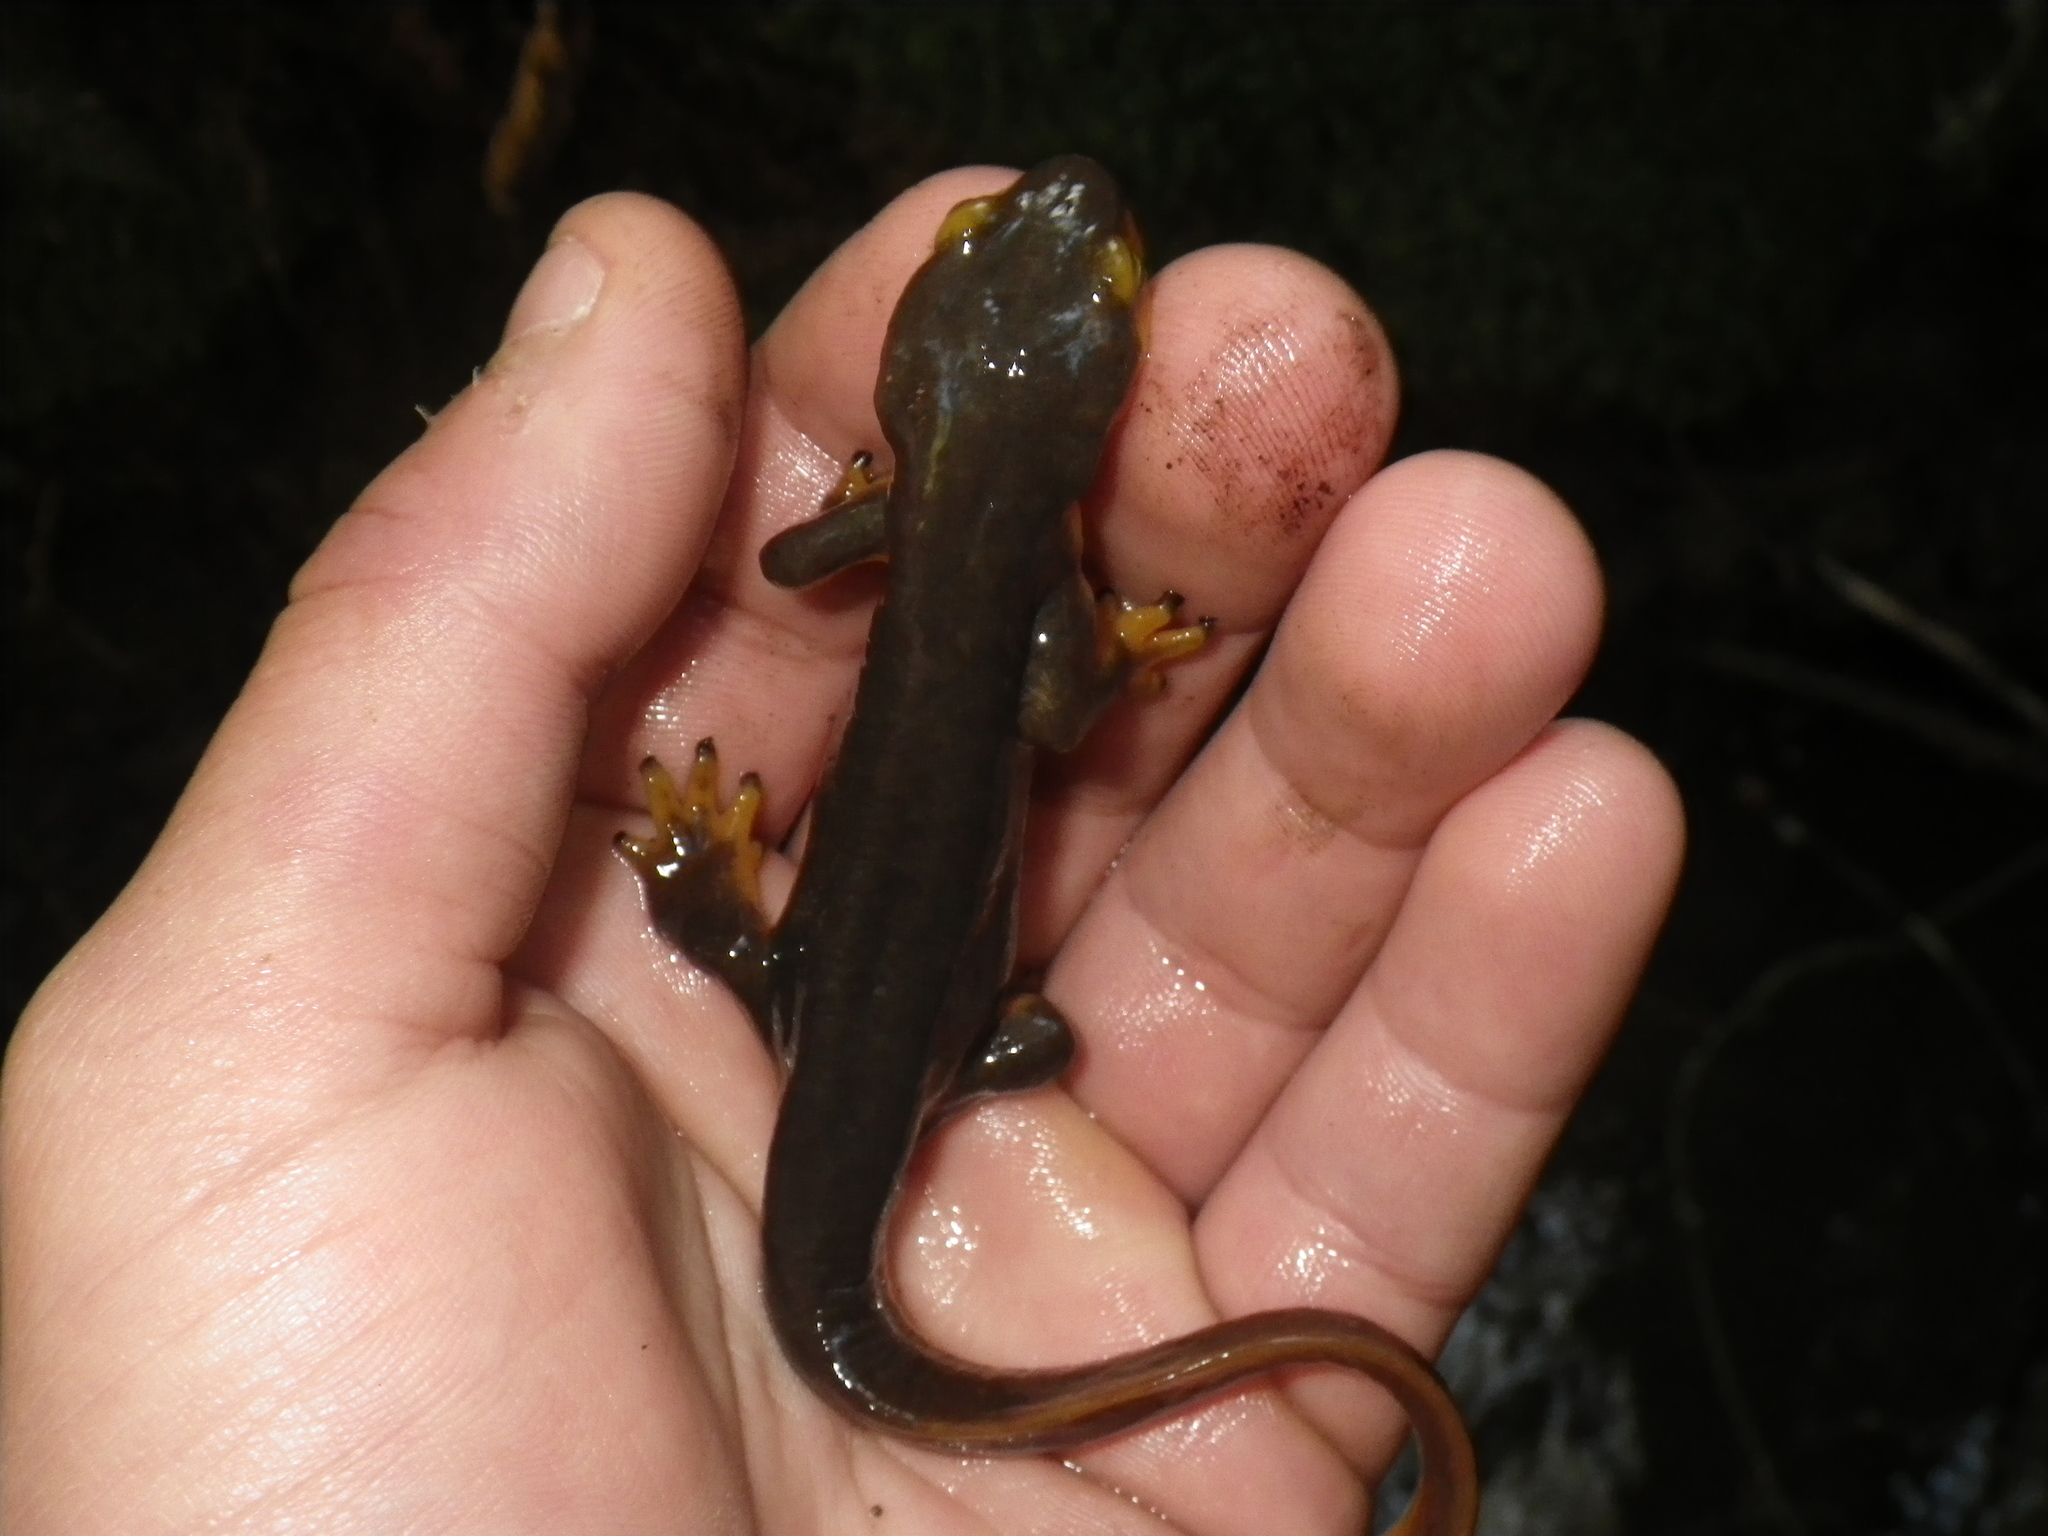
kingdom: Animalia
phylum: Chordata
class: Amphibia
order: Caudata
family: Salamandridae
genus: Taricha
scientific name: Taricha torosa
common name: California newt
